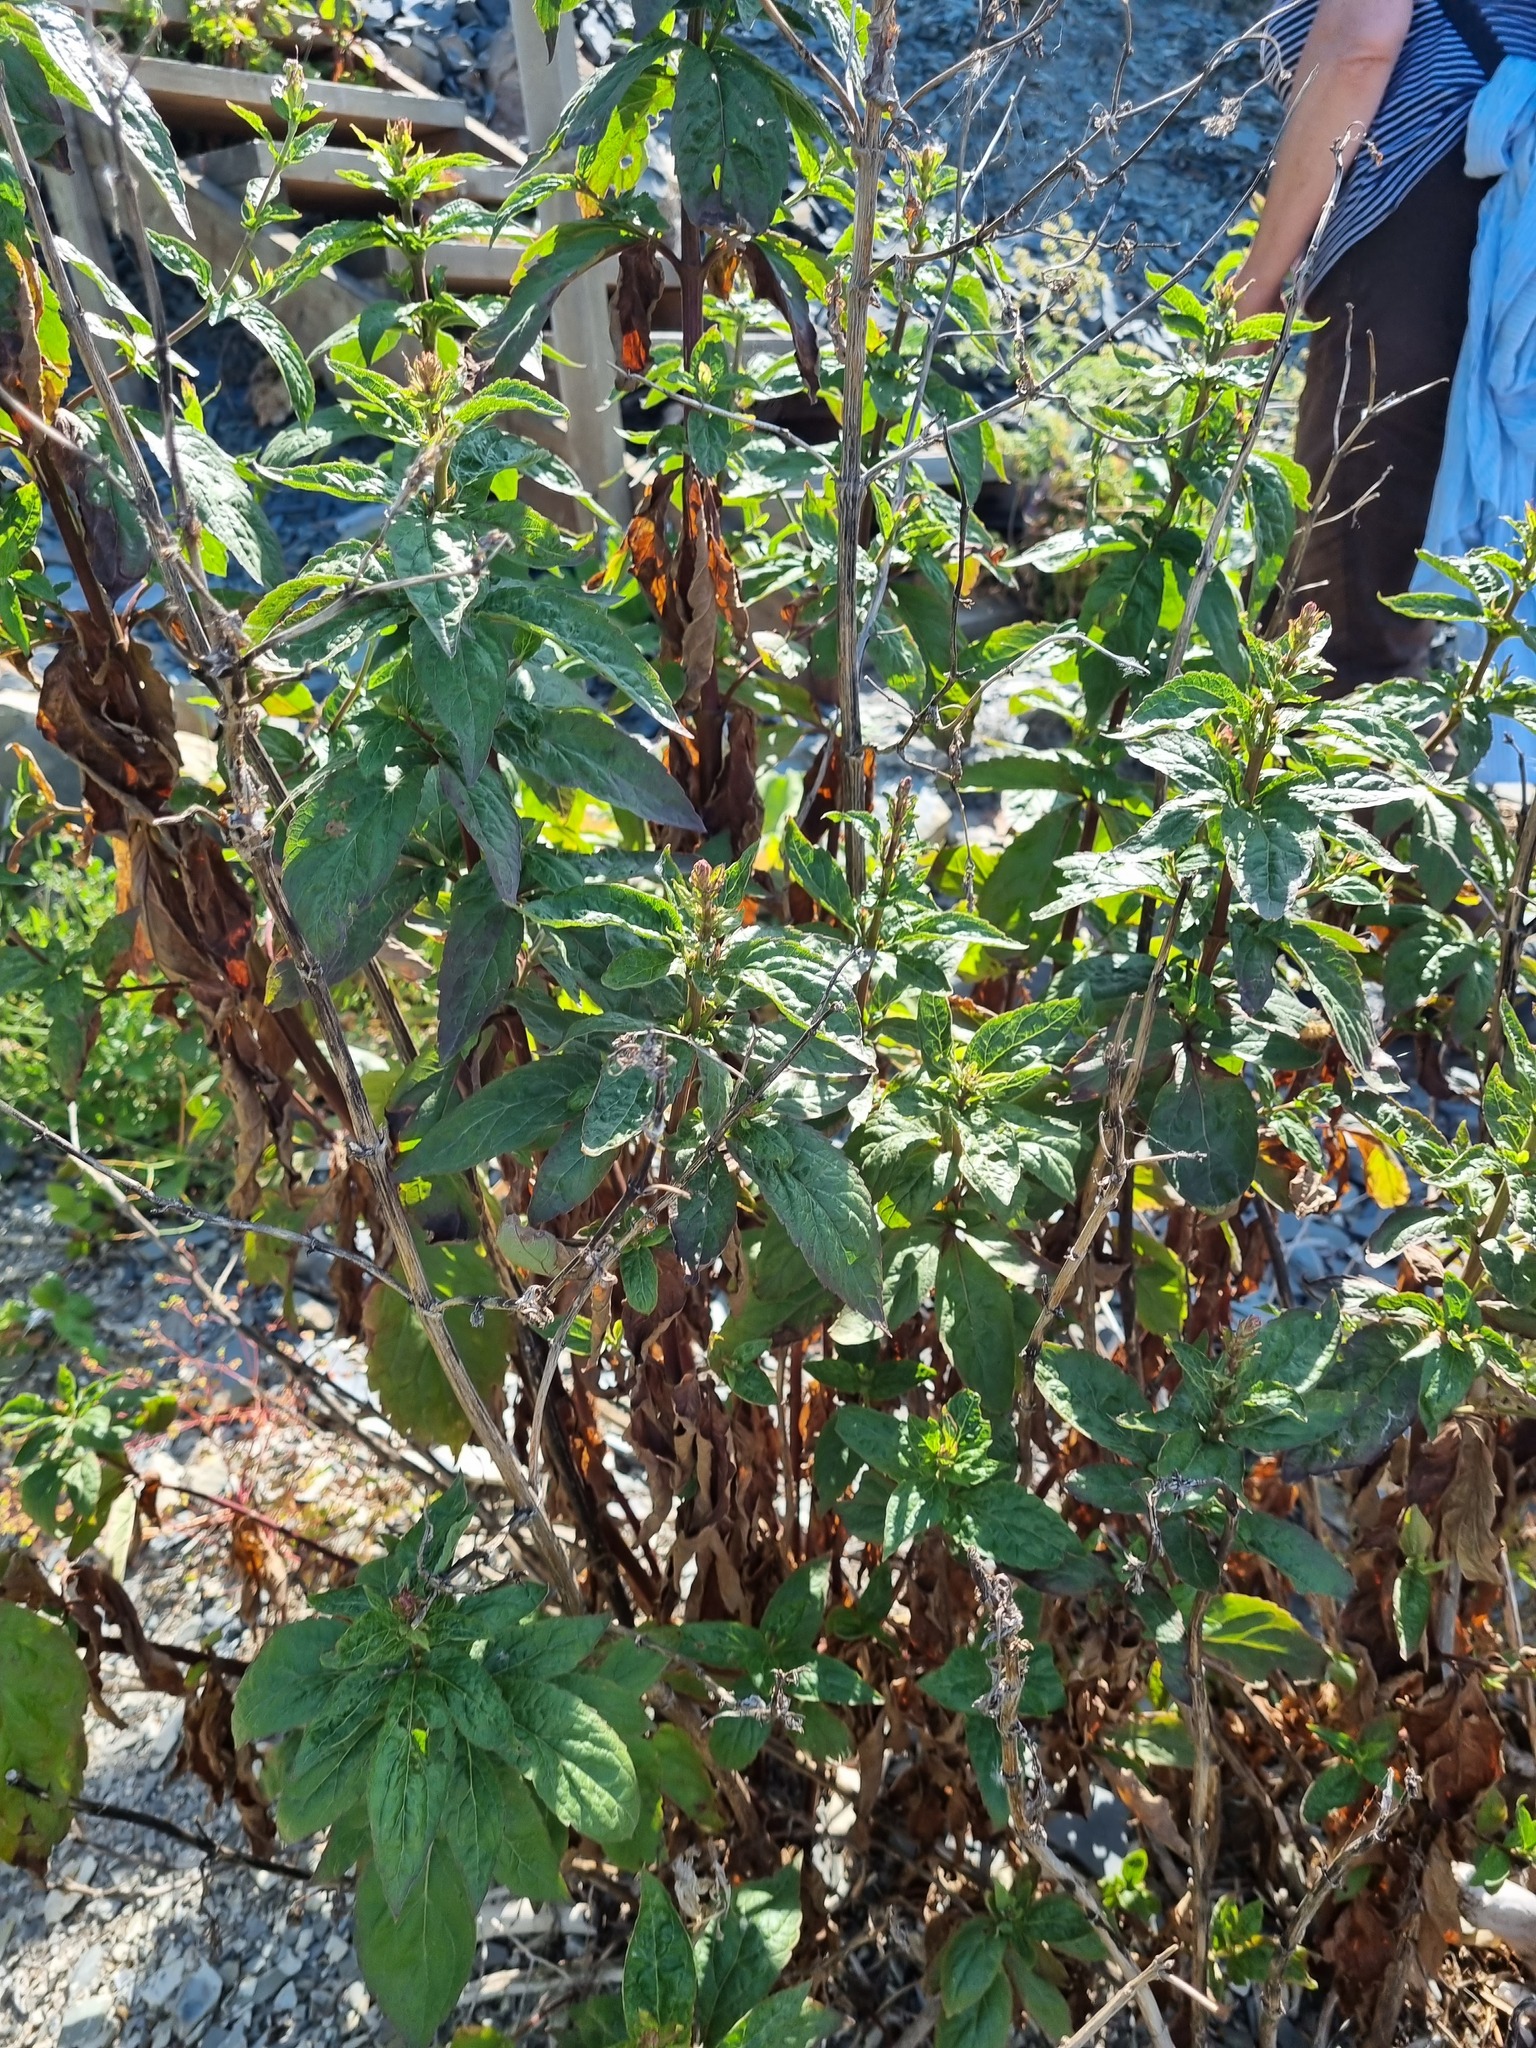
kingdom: Plantae
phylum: Tracheophyta
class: Magnoliopsida
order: Asterales
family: Asteraceae
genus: Eupatorium
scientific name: Eupatorium cannabinum
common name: Hemp-agrimony
